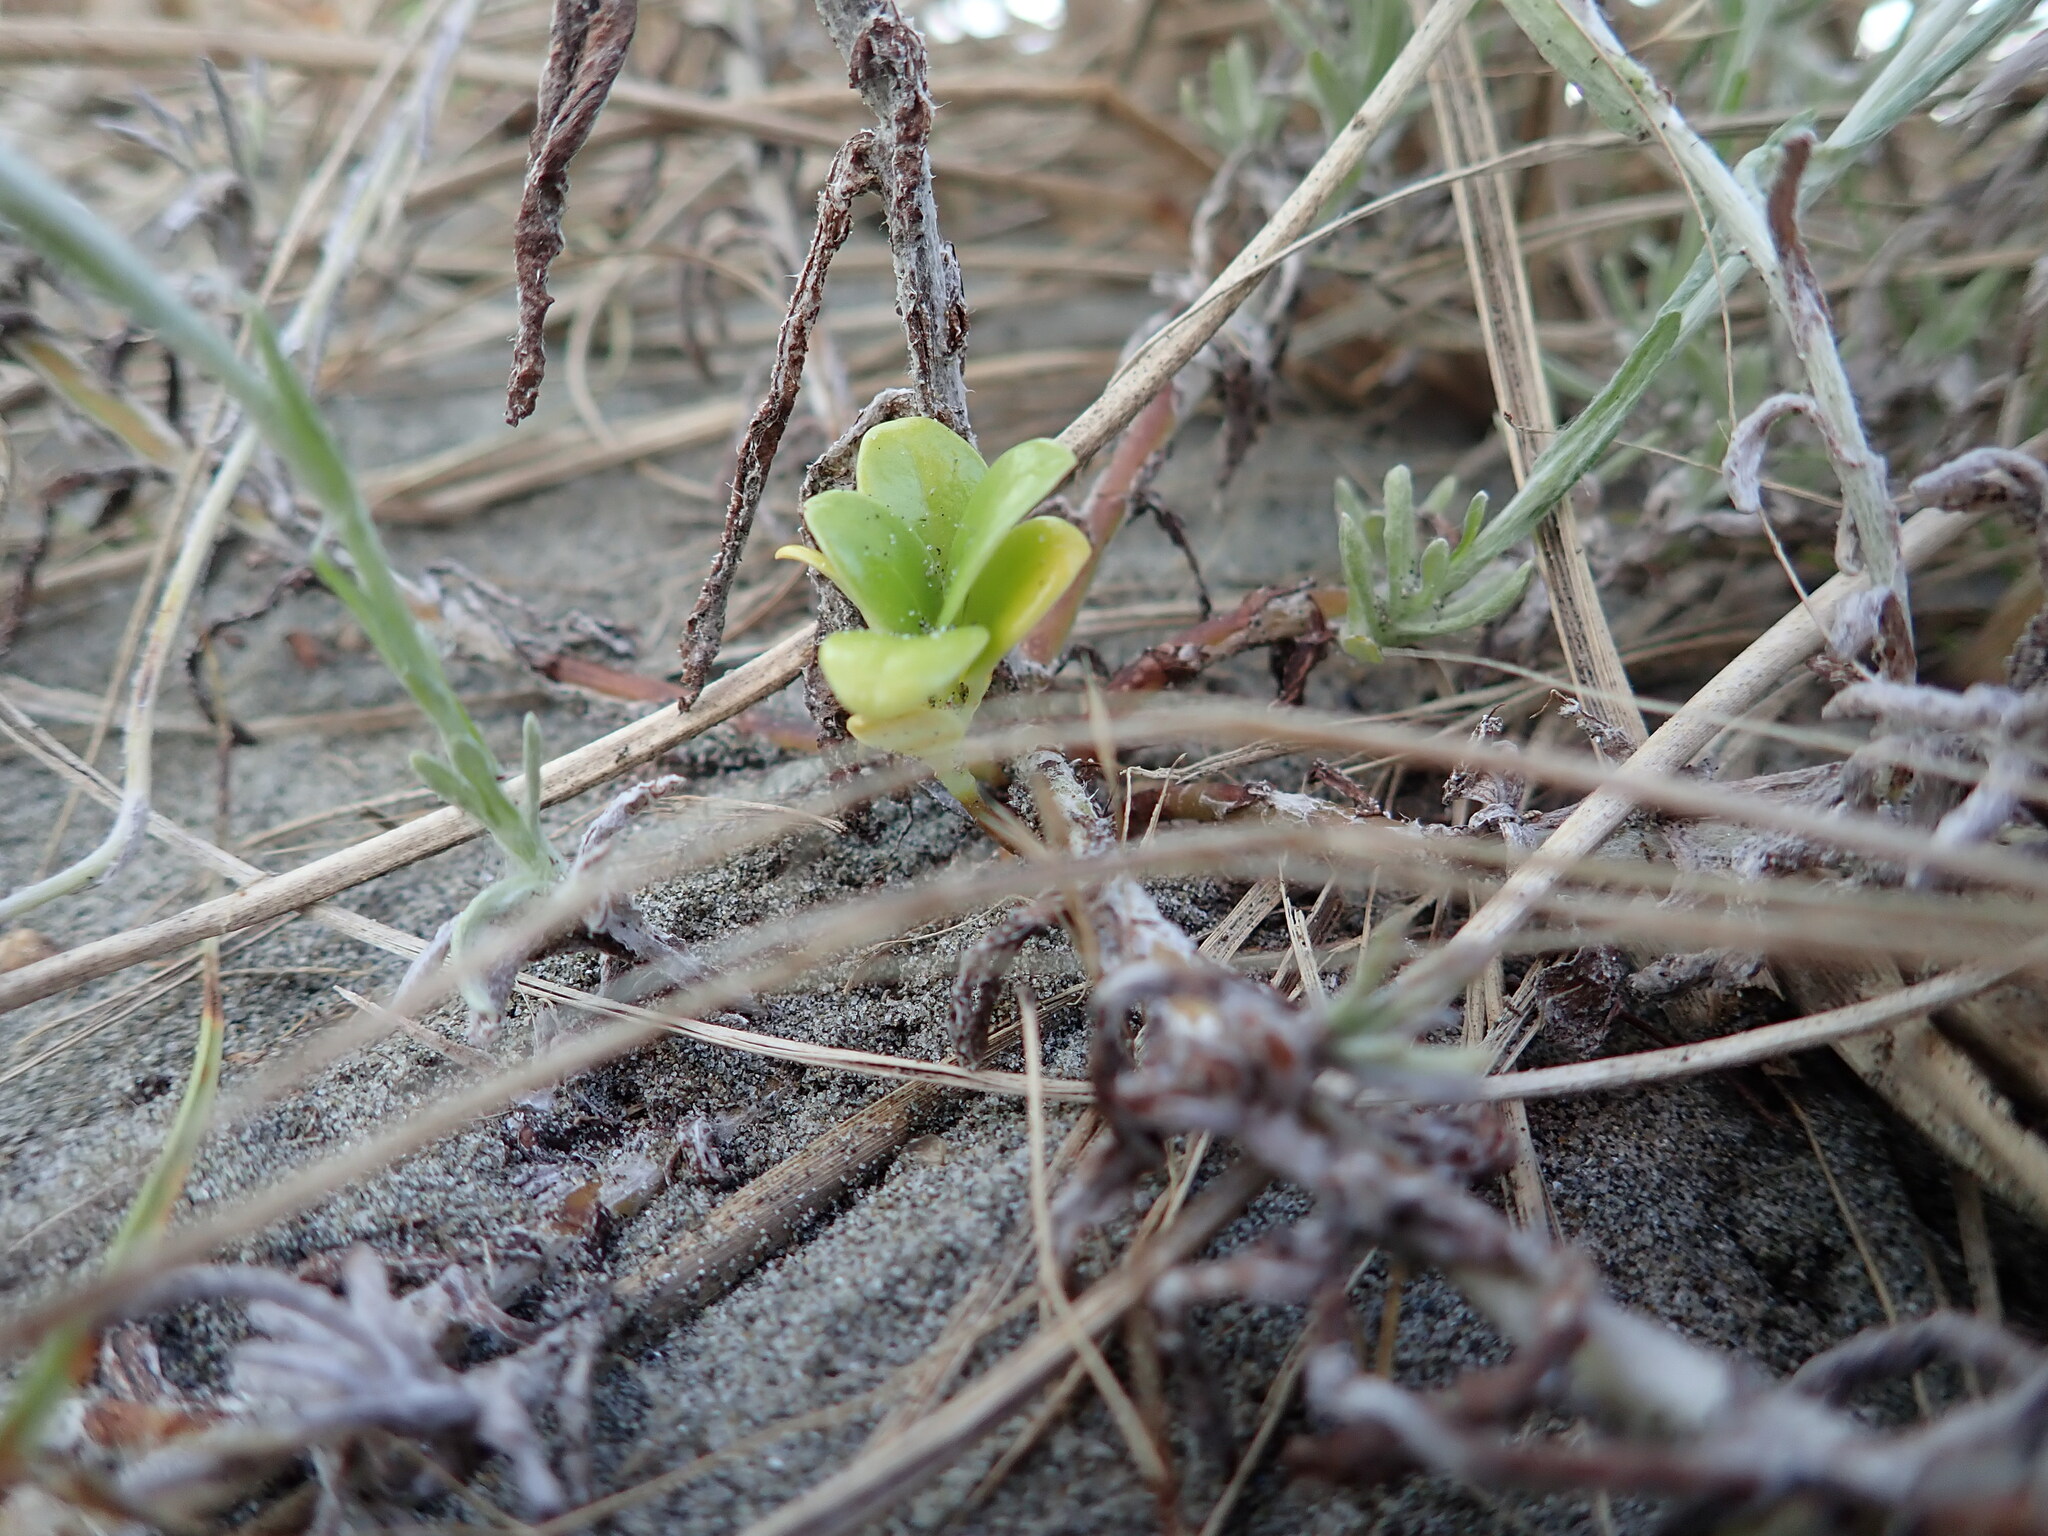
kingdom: Plantae
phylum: Tracheophyta
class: Magnoliopsida
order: Gentianales
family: Rubiaceae
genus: Coprosma
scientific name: Coprosma repens
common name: Tree bedstraw
